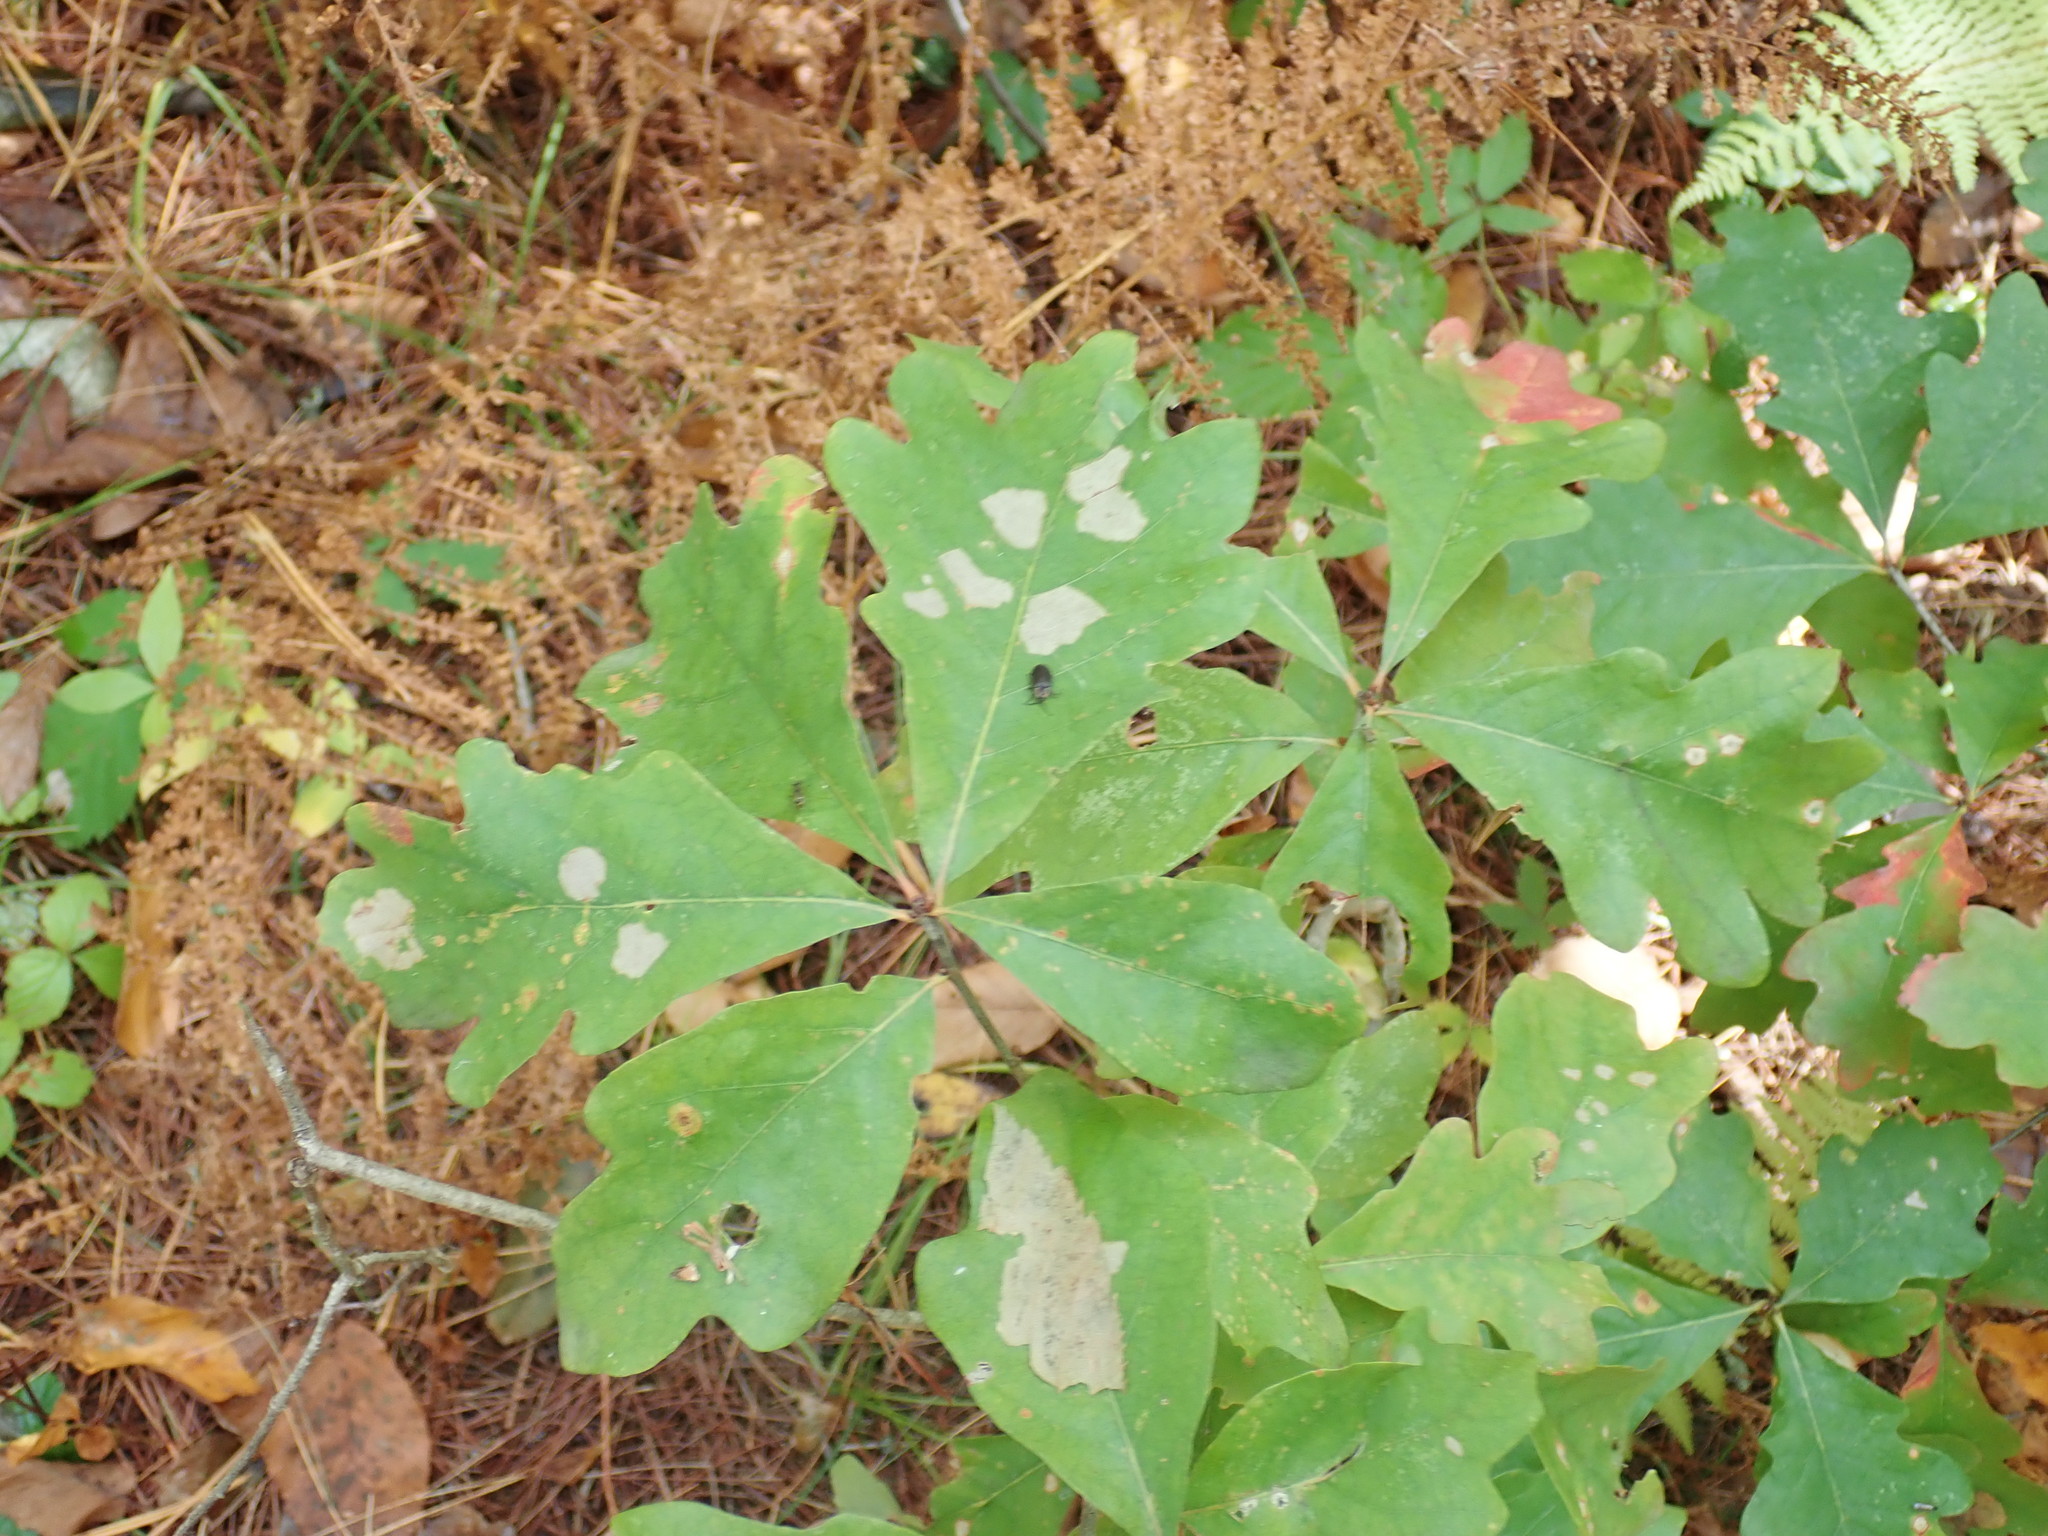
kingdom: Plantae
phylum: Tracheophyta
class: Magnoliopsida
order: Fagales
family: Fagaceae
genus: Quercus
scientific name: Quercus alba
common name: White oak
